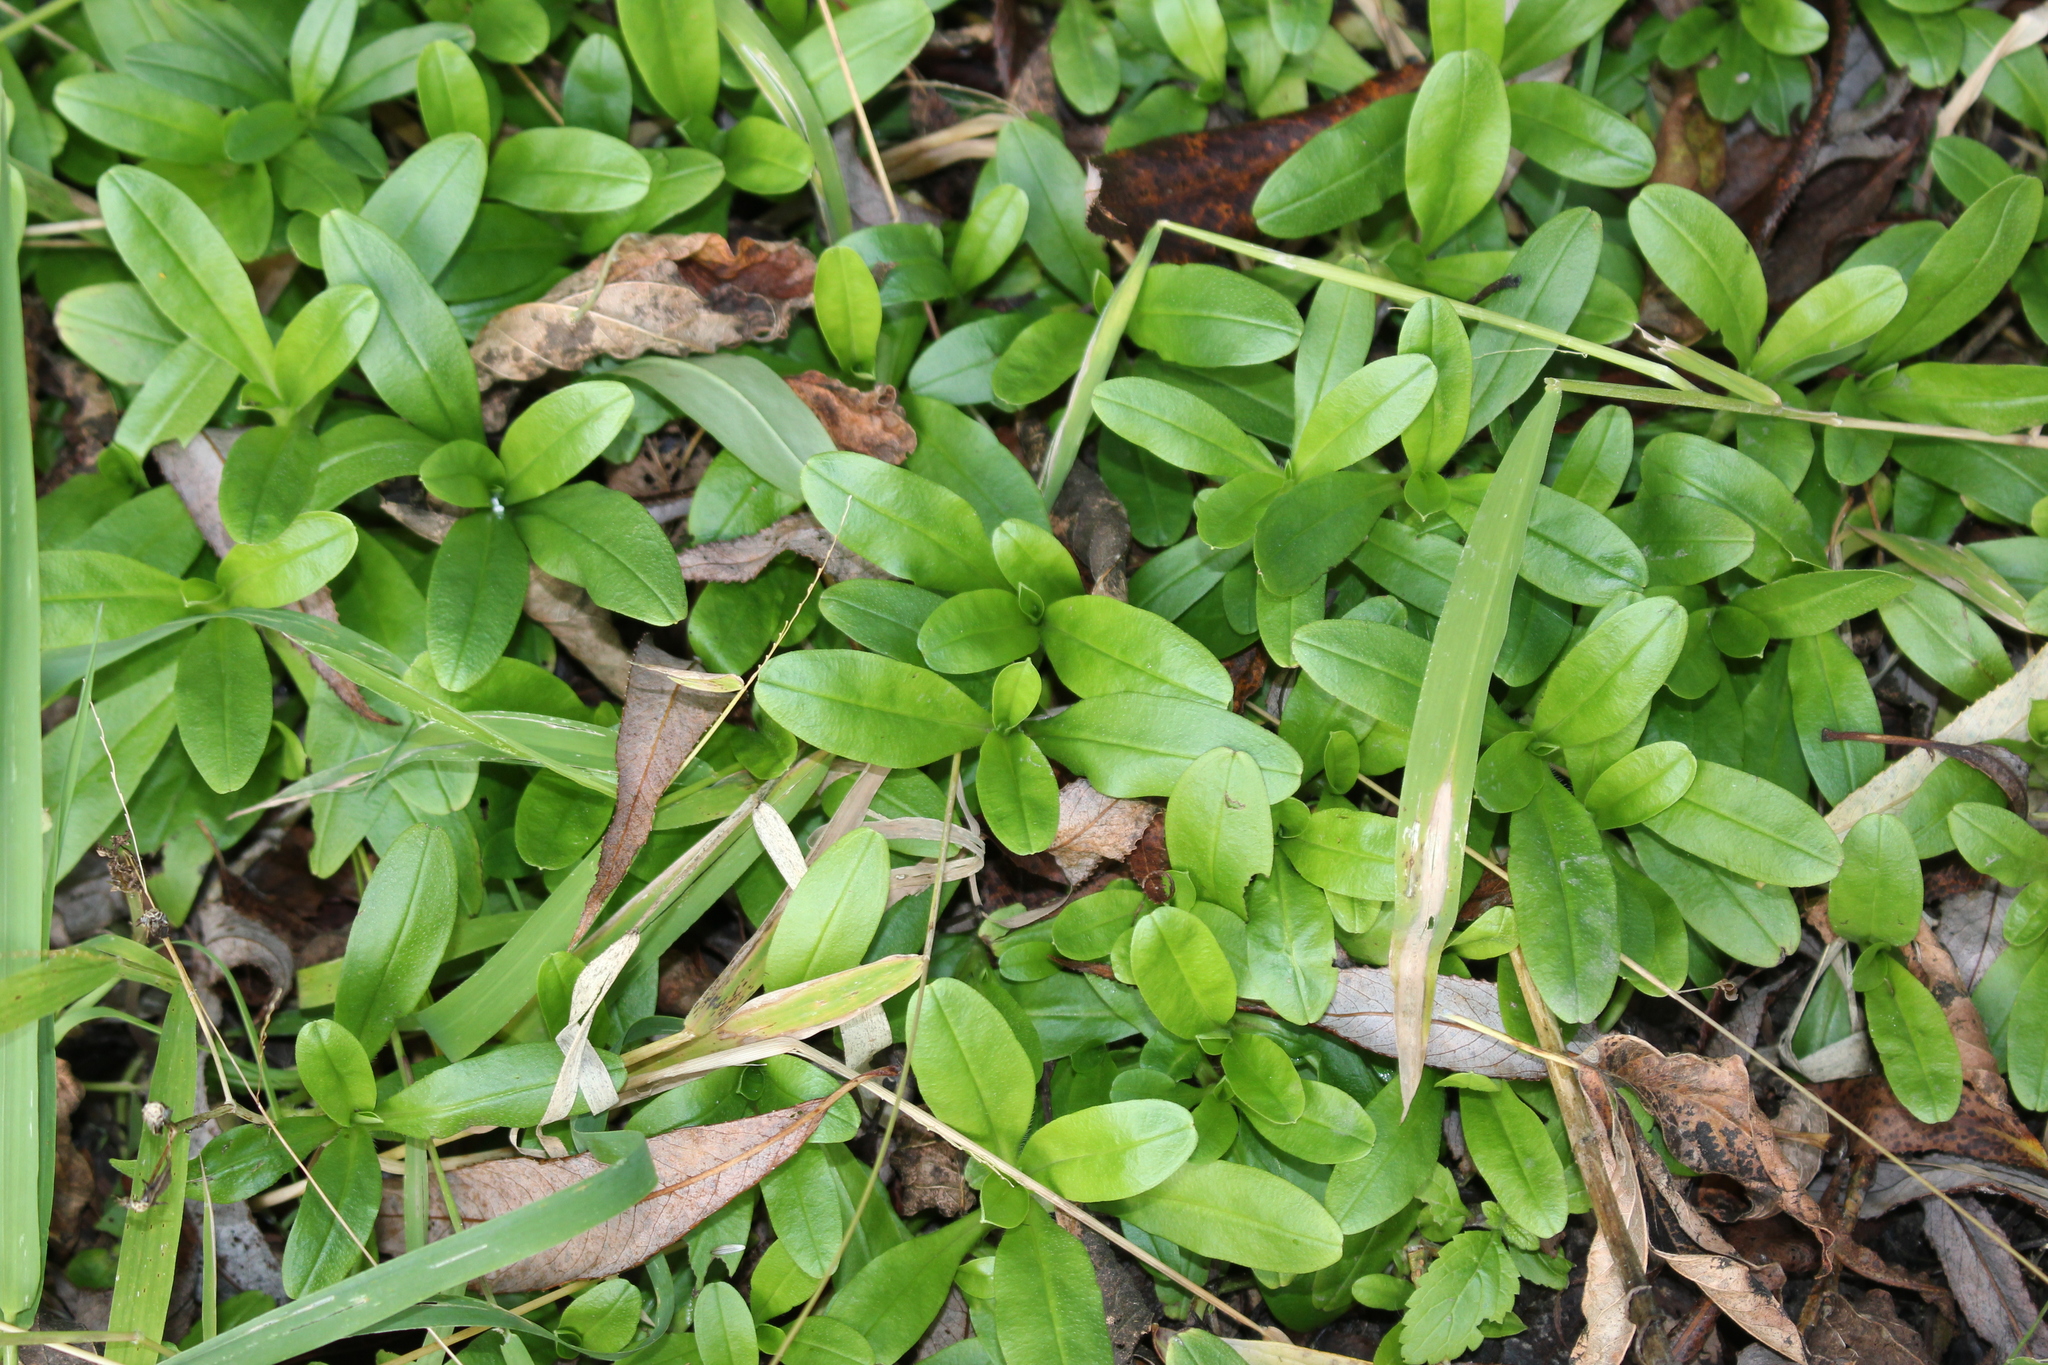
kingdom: Plantae
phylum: Tracheophyta
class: Magnoliopsida
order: Boraginales
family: Boraginaceae
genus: Myosotis
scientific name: Myosotis scorpioides
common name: Water forget-me-not
